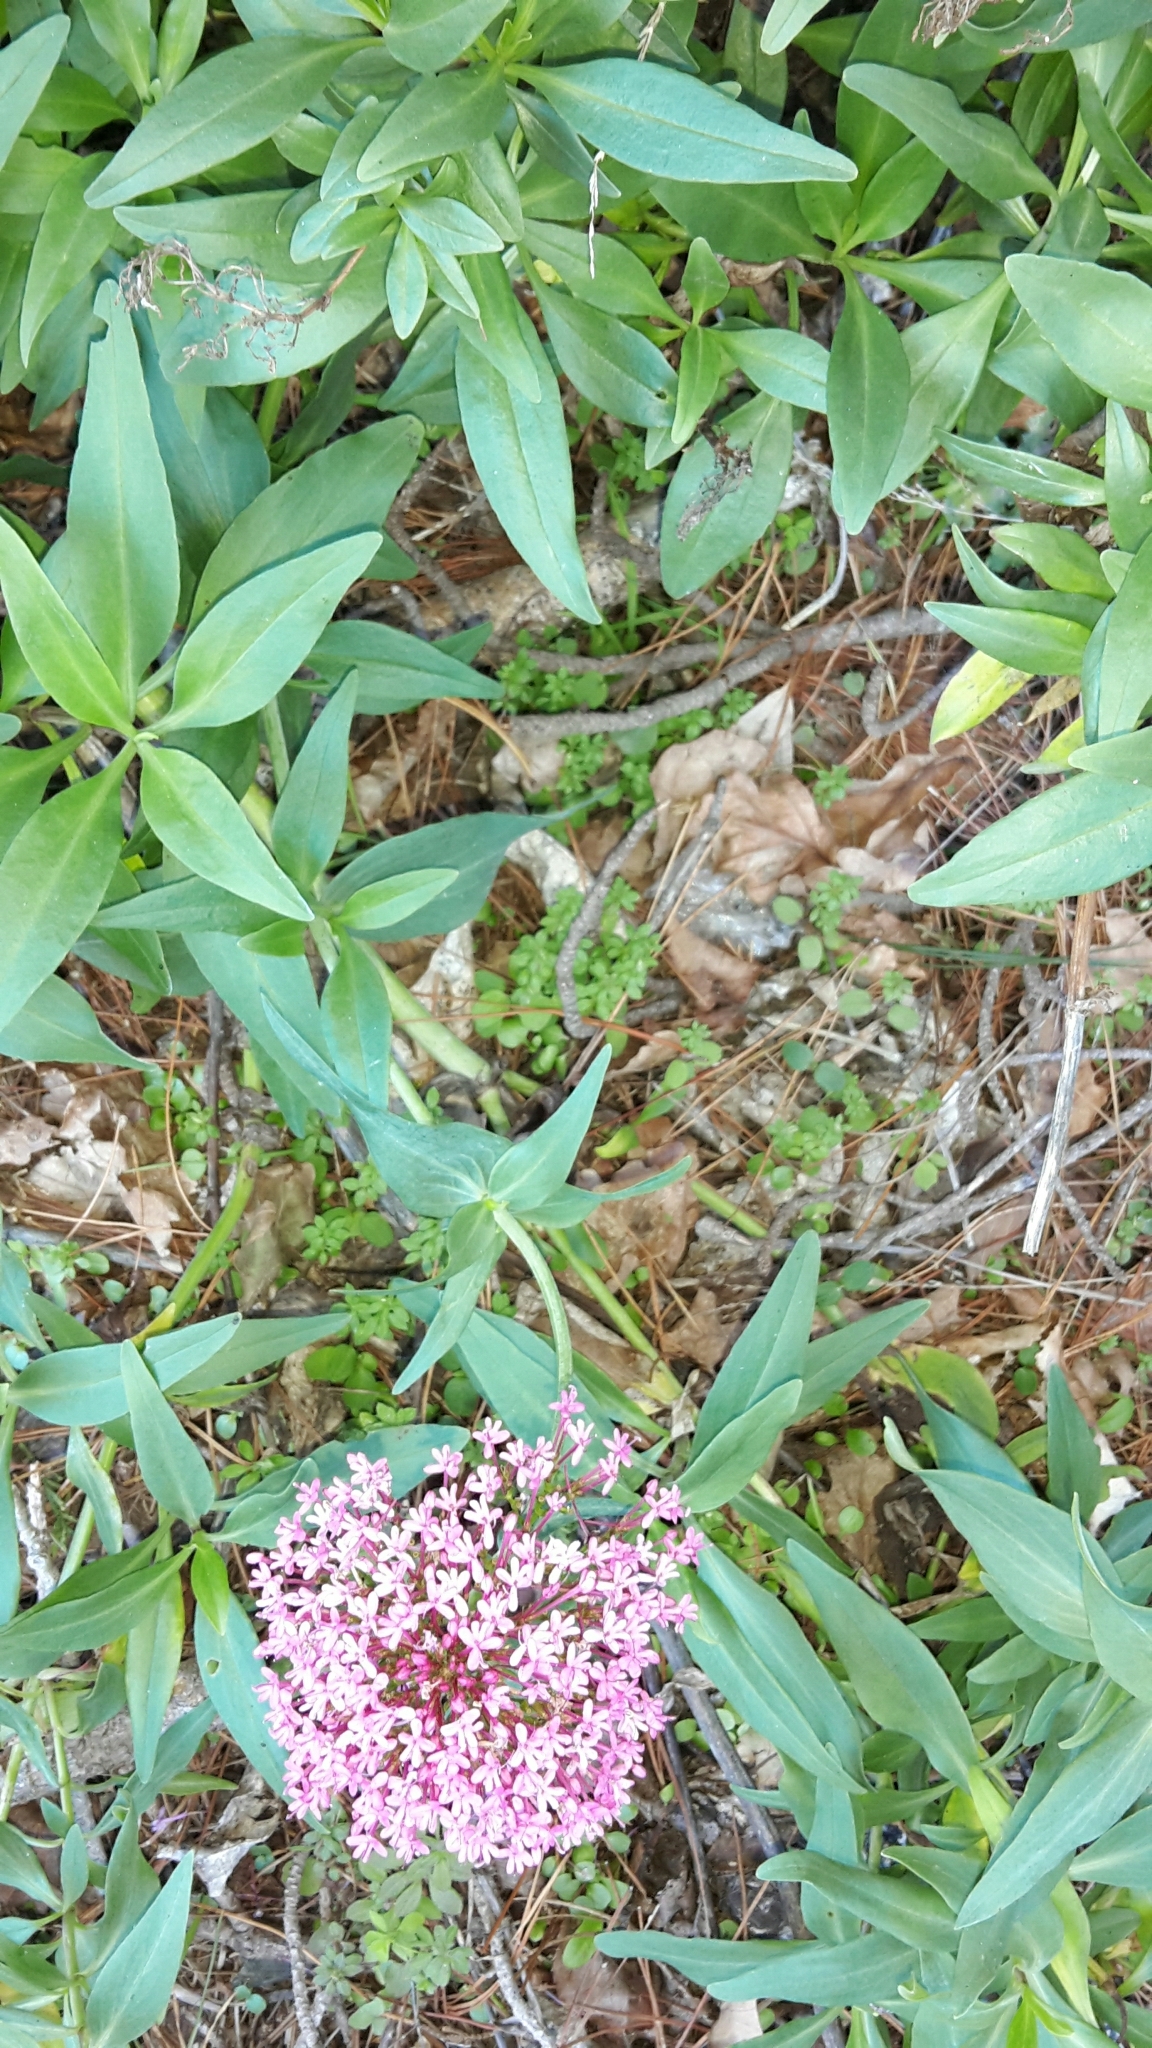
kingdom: Plantae
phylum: Tracheophyta
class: Magnoliopsida
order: Dipsacales
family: Caprifoliaceae
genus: Centranthus
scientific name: Centranthus ruber
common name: Red valerian
